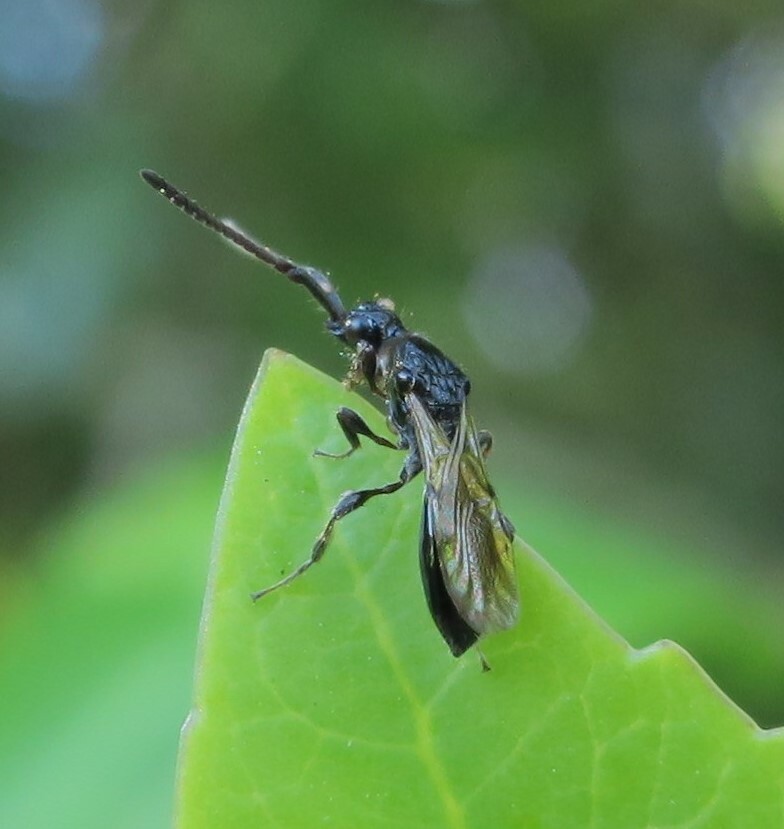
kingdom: Animalia
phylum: Arthropoda
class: Insecta
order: Hymenoptera
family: Diapriidae
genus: Neurogalesus
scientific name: Neurogalesus carinatus
